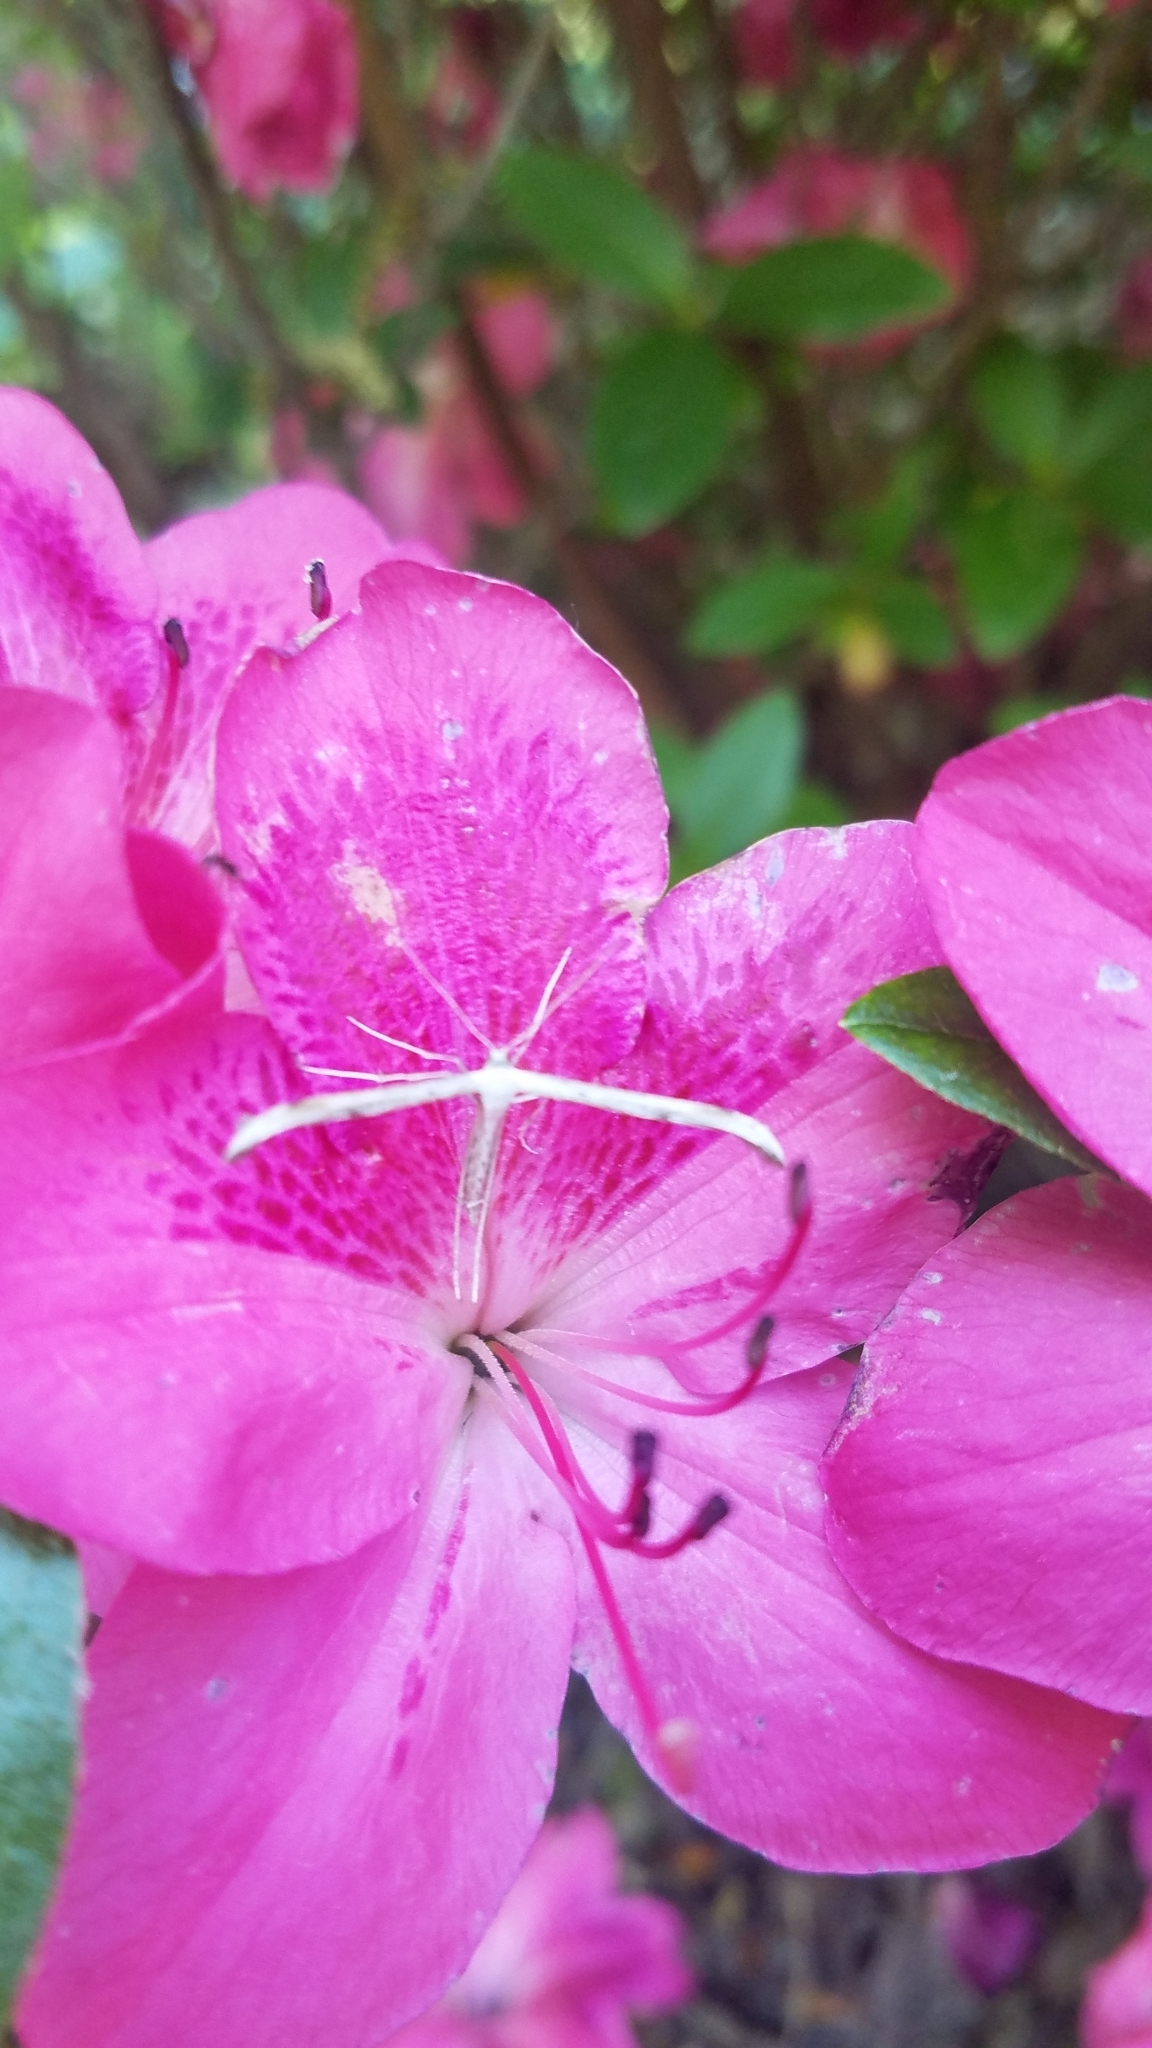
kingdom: Animalia
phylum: Arthropoda
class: Insecta
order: Lepidoptera
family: Pterophoridae
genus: Emmelina
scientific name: Emmelina monodactyla
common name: Common plume
